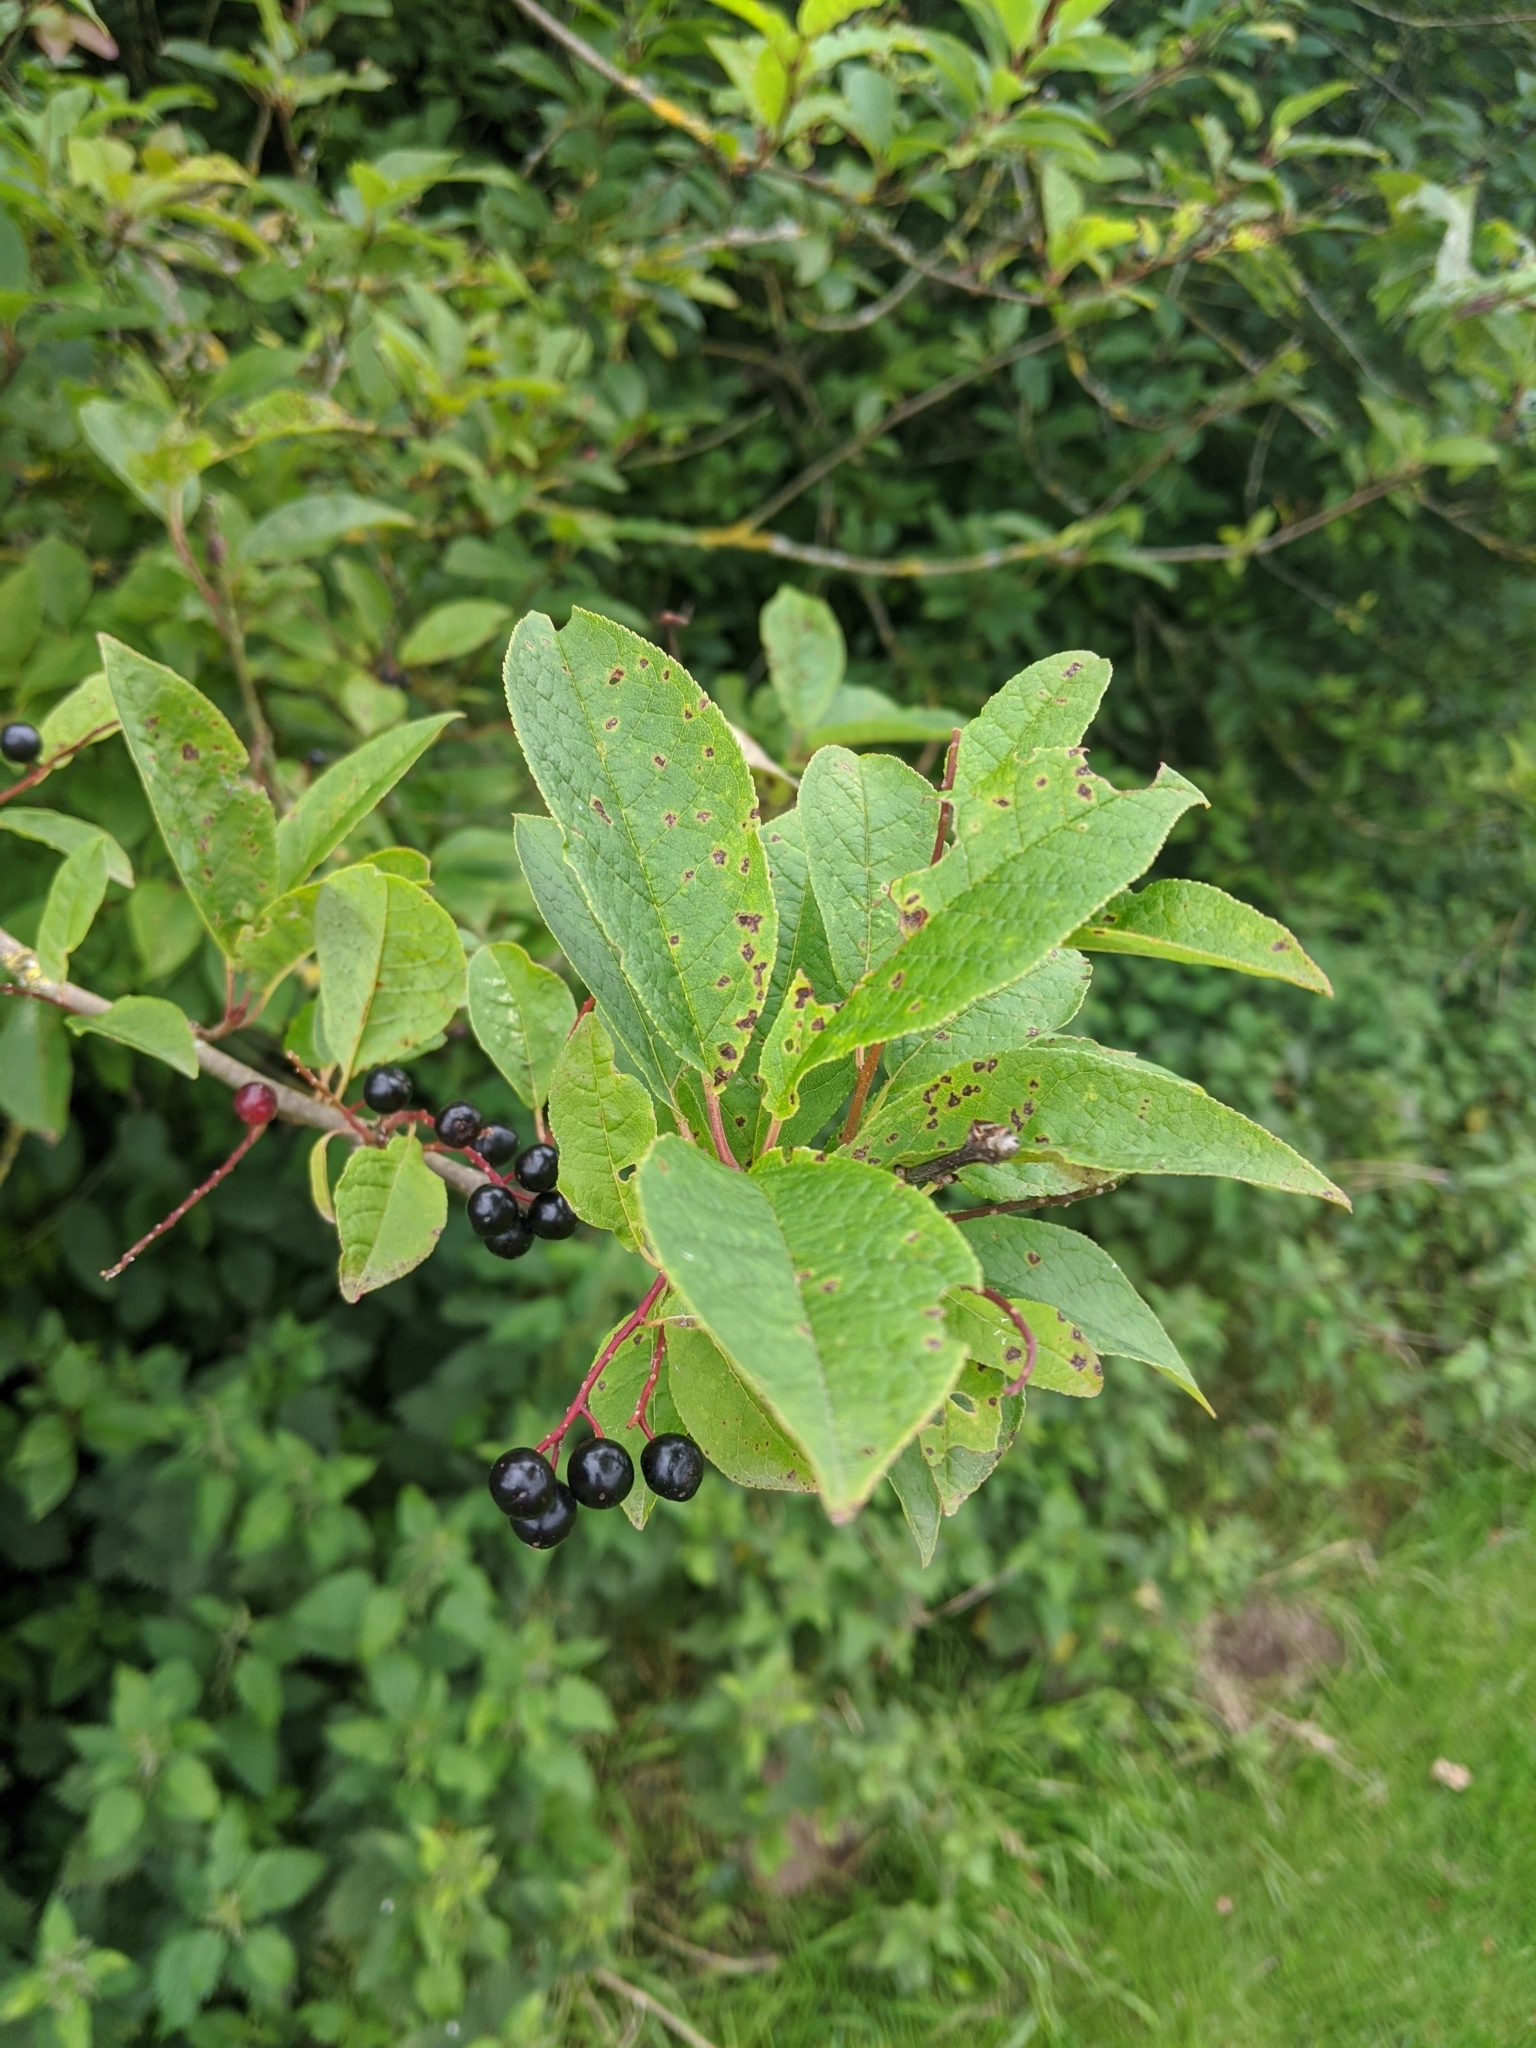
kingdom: Plantae
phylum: Tracheophyta
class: Magnoliopsida
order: Rosales
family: Rosaceae
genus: Prunus
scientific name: Prunus padus
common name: Bird cherry
